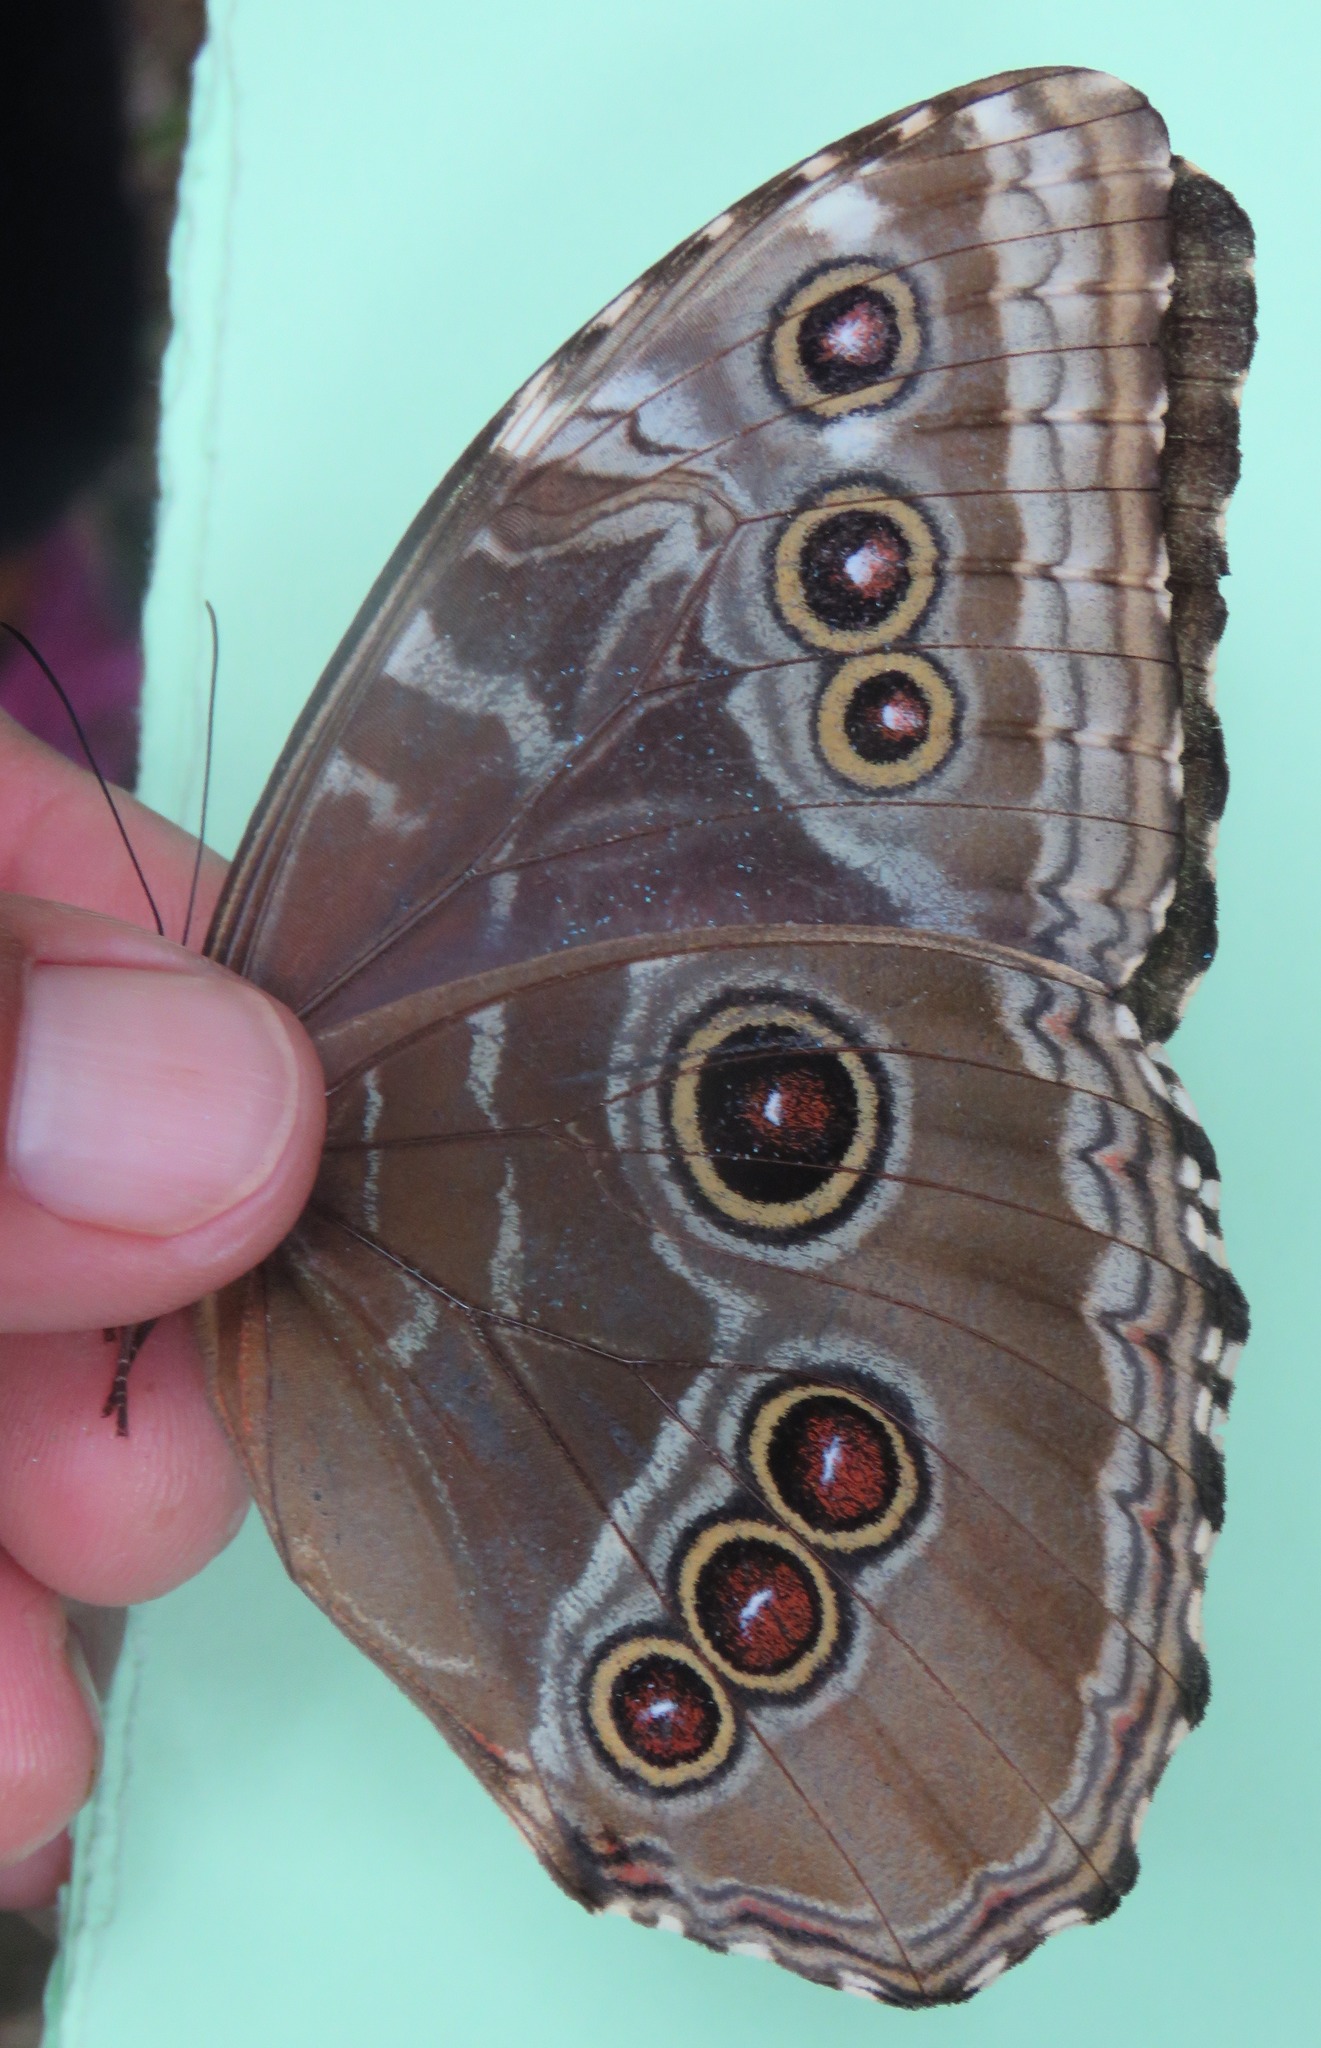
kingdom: Animalia
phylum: Arthropoda
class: Insecta
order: Lepidoptera
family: Nymphalidae
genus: Morpho
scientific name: Morpho helenor
